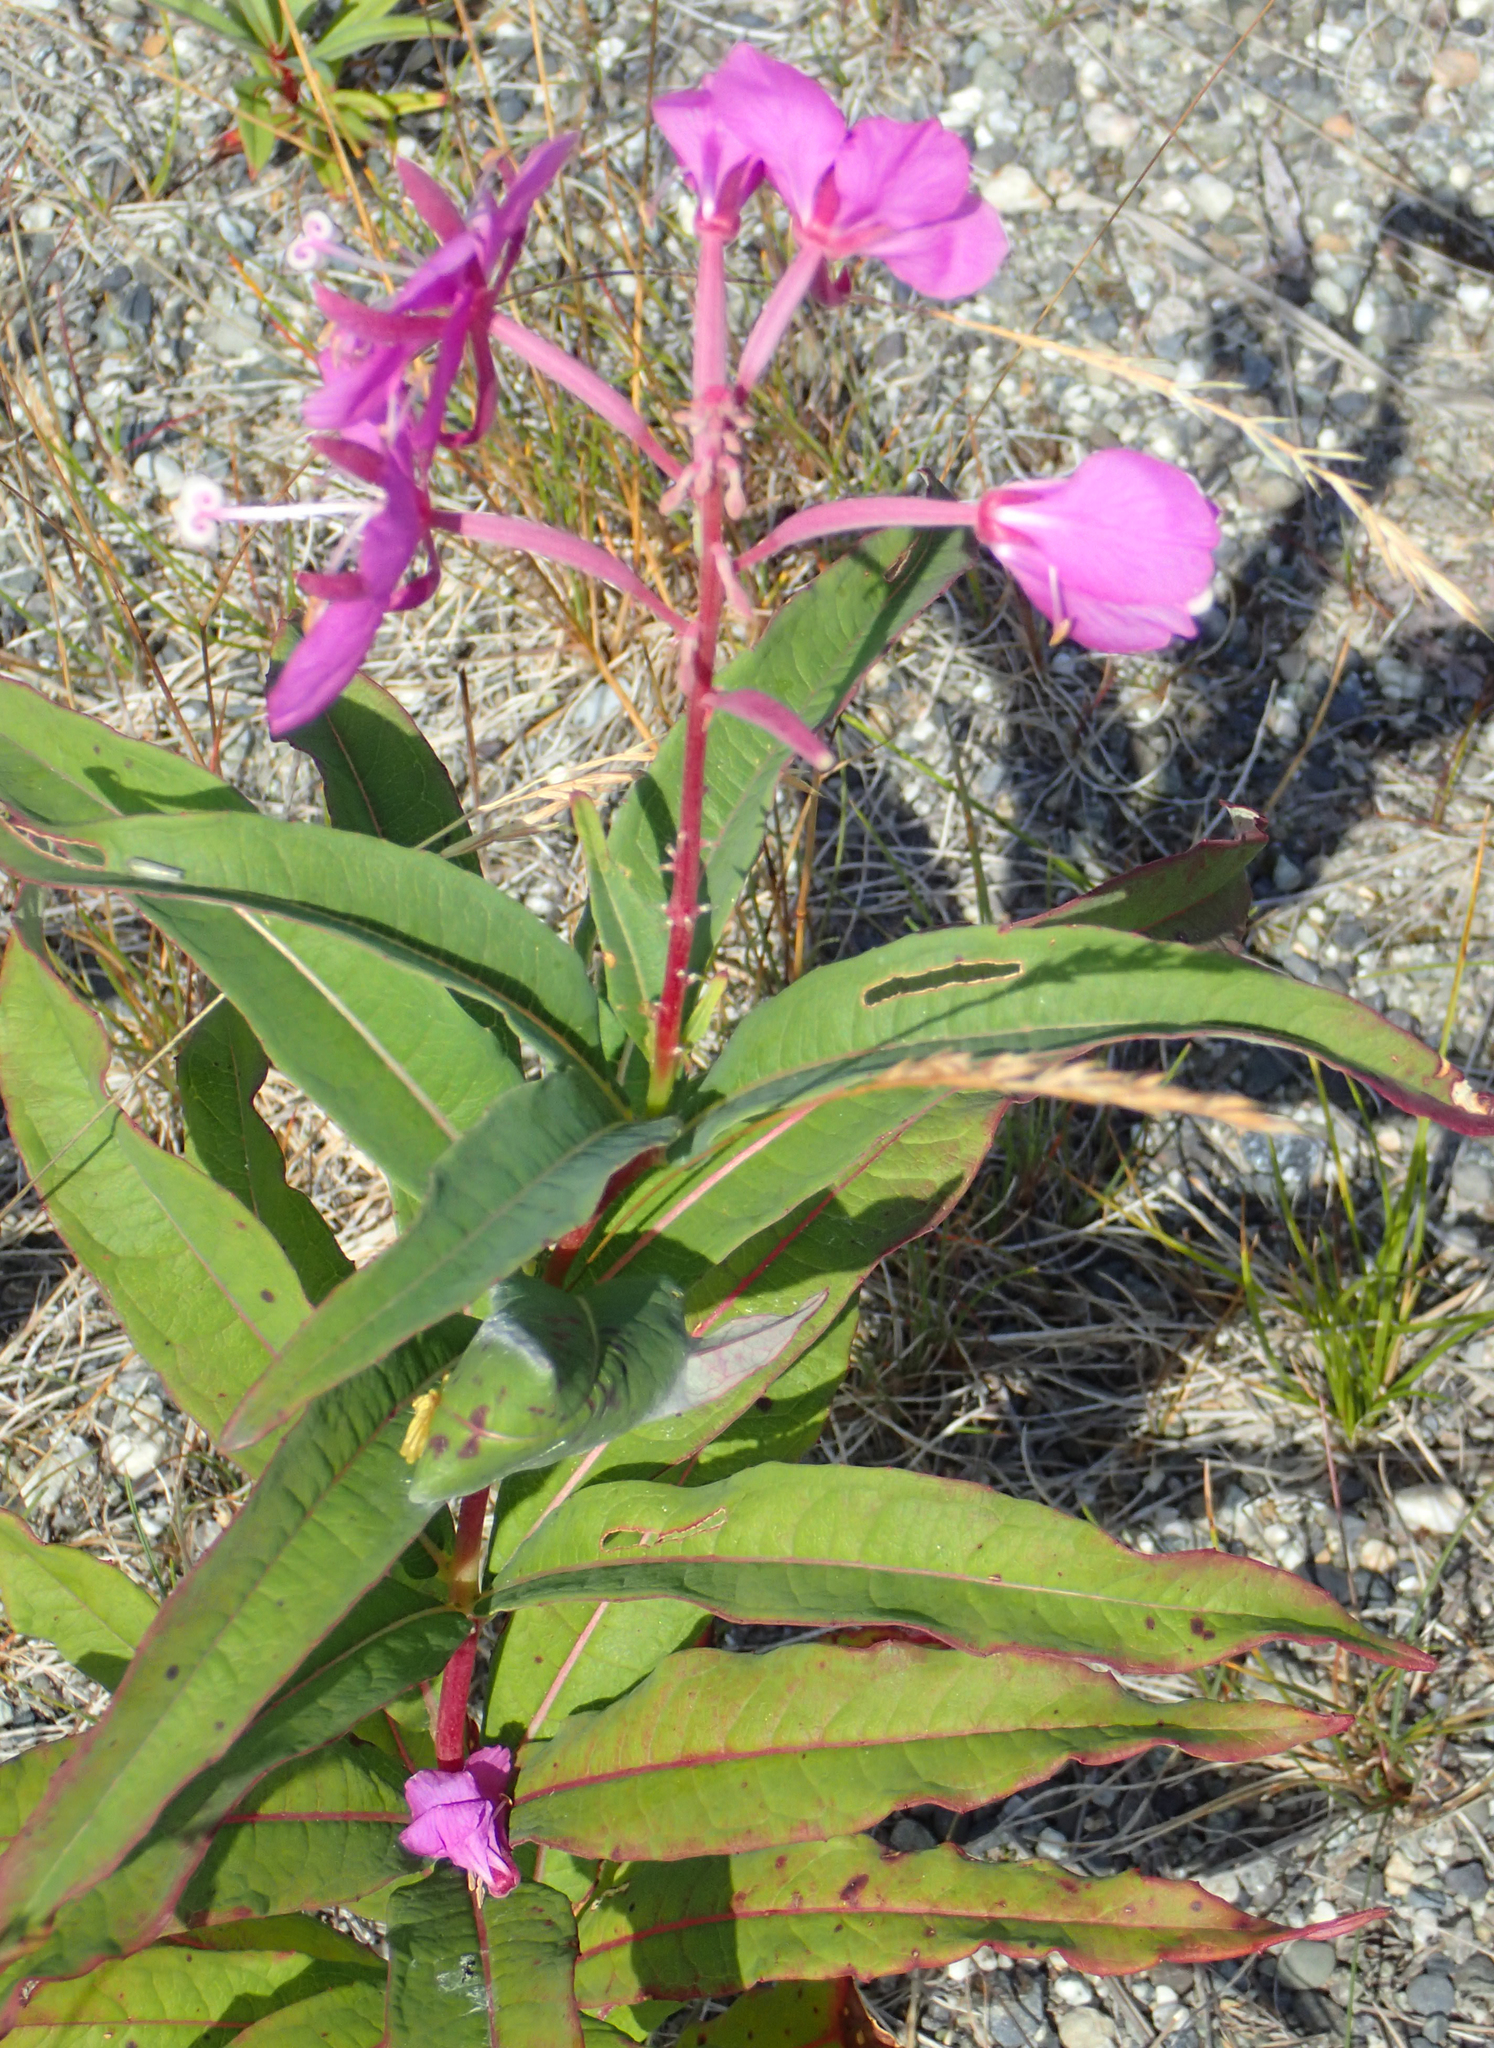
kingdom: Plantae
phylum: Tracheophyta
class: Magnoliopsida
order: Myrtales
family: Onagraceae
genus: Chamaenerion
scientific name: Chamaenerion angustifolium
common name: Fireweed
